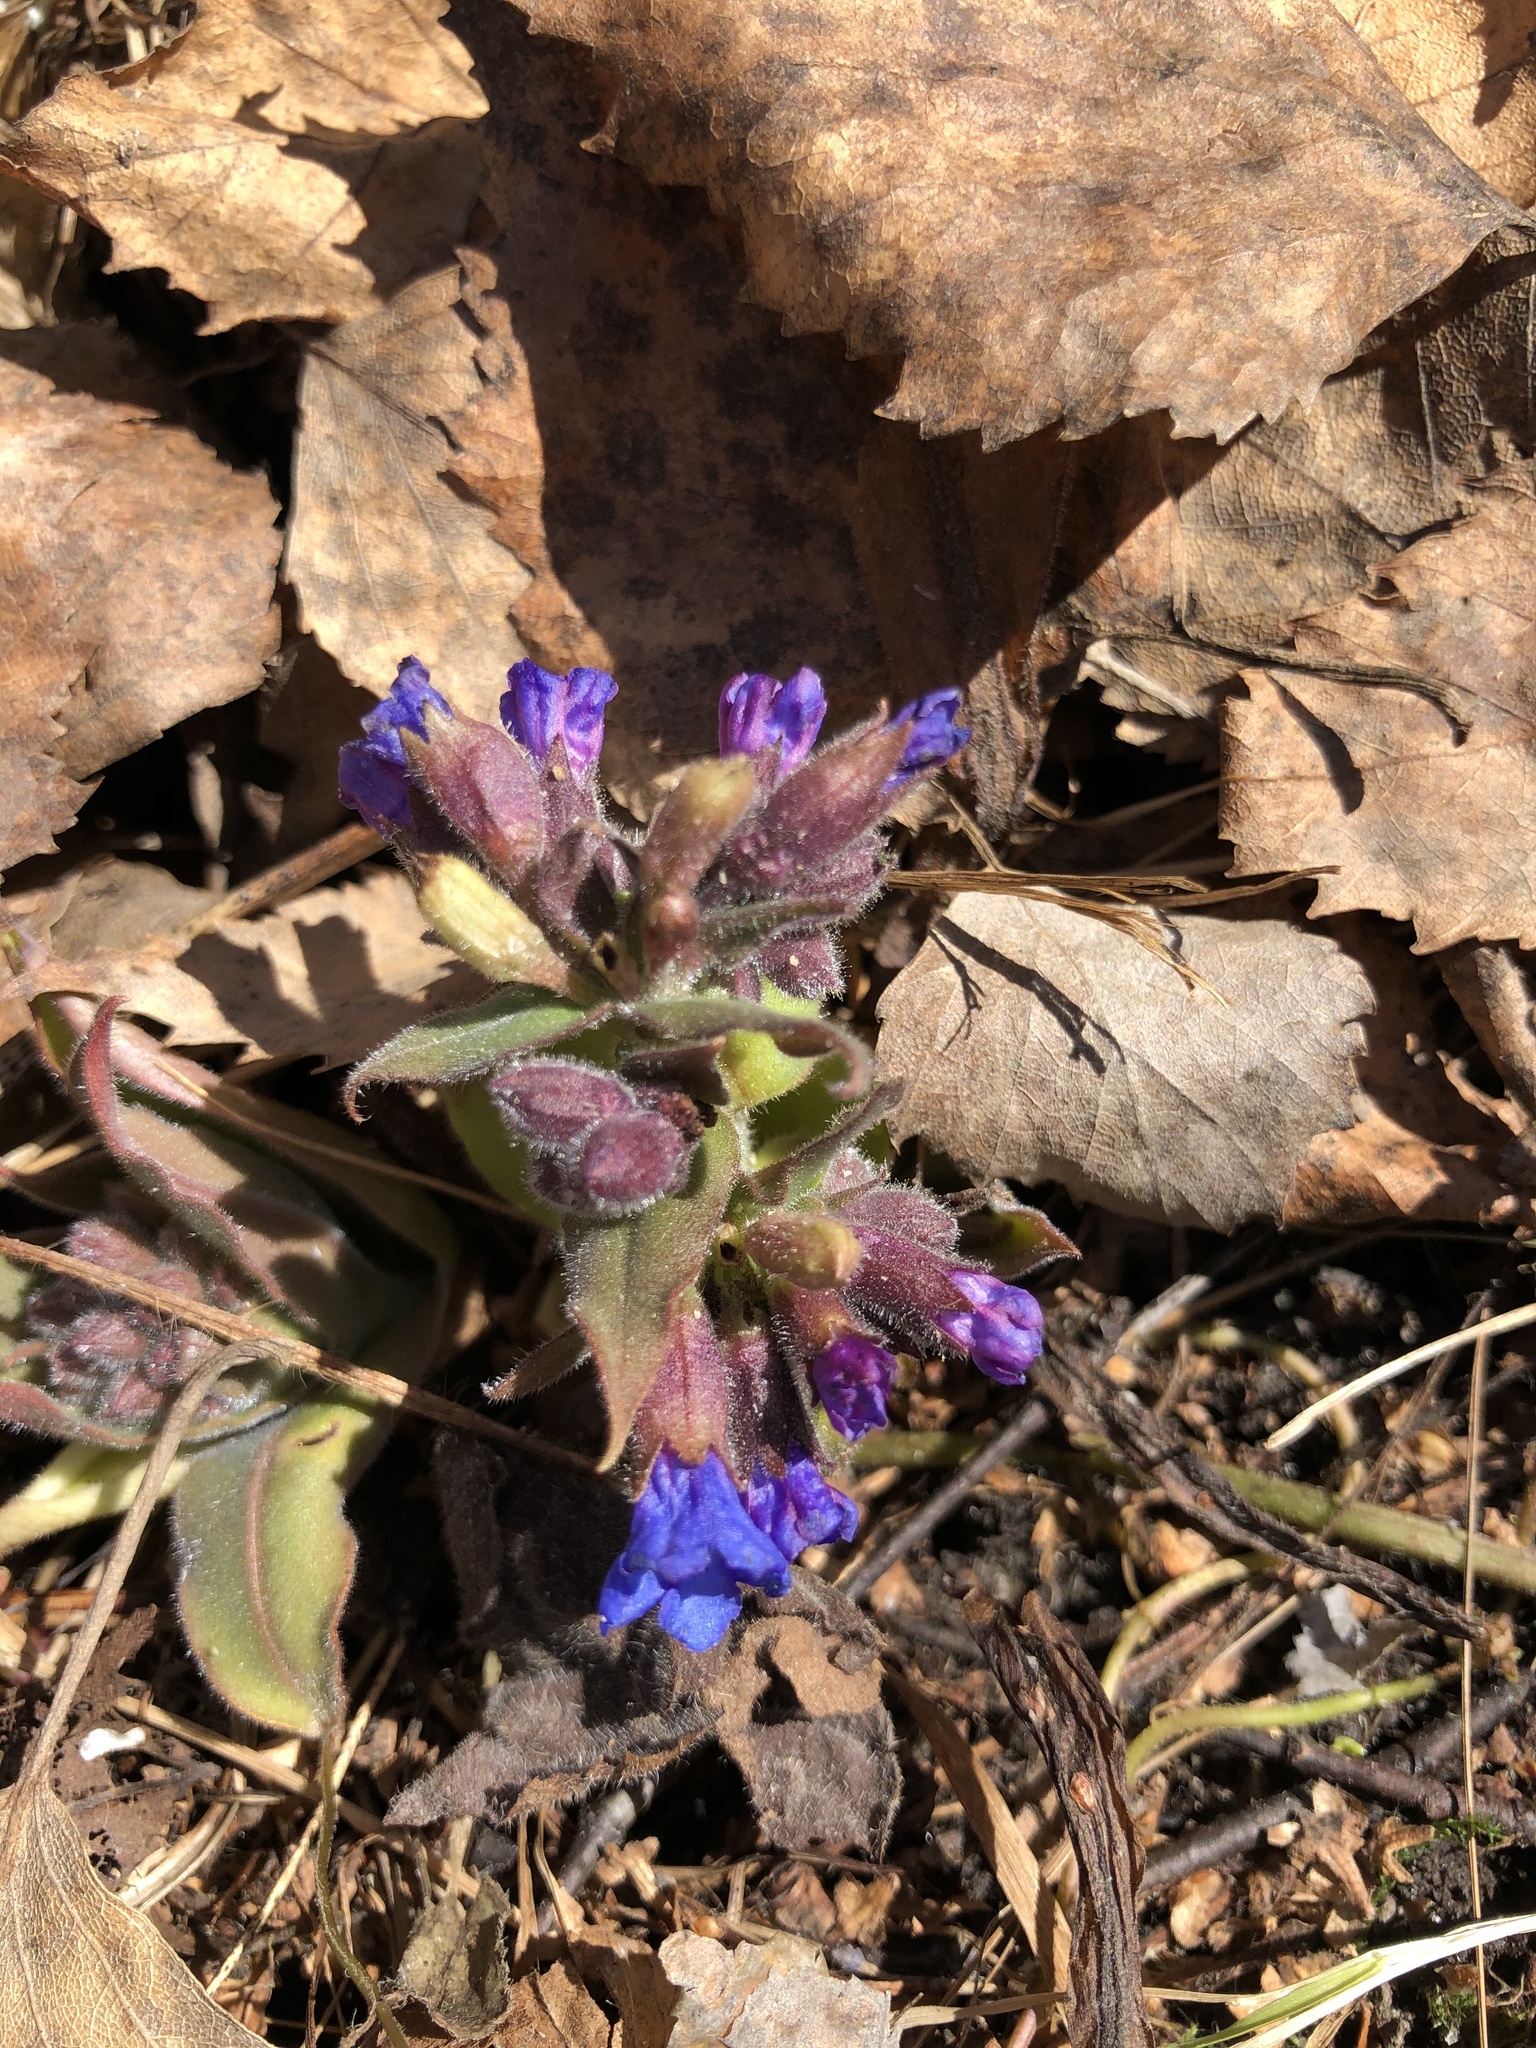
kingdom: Plantae
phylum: Tracheophyta
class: Magnoliopsida
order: Boraginales
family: Boraginaceae
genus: Pulmonaria
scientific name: Pulmonaria mollis
